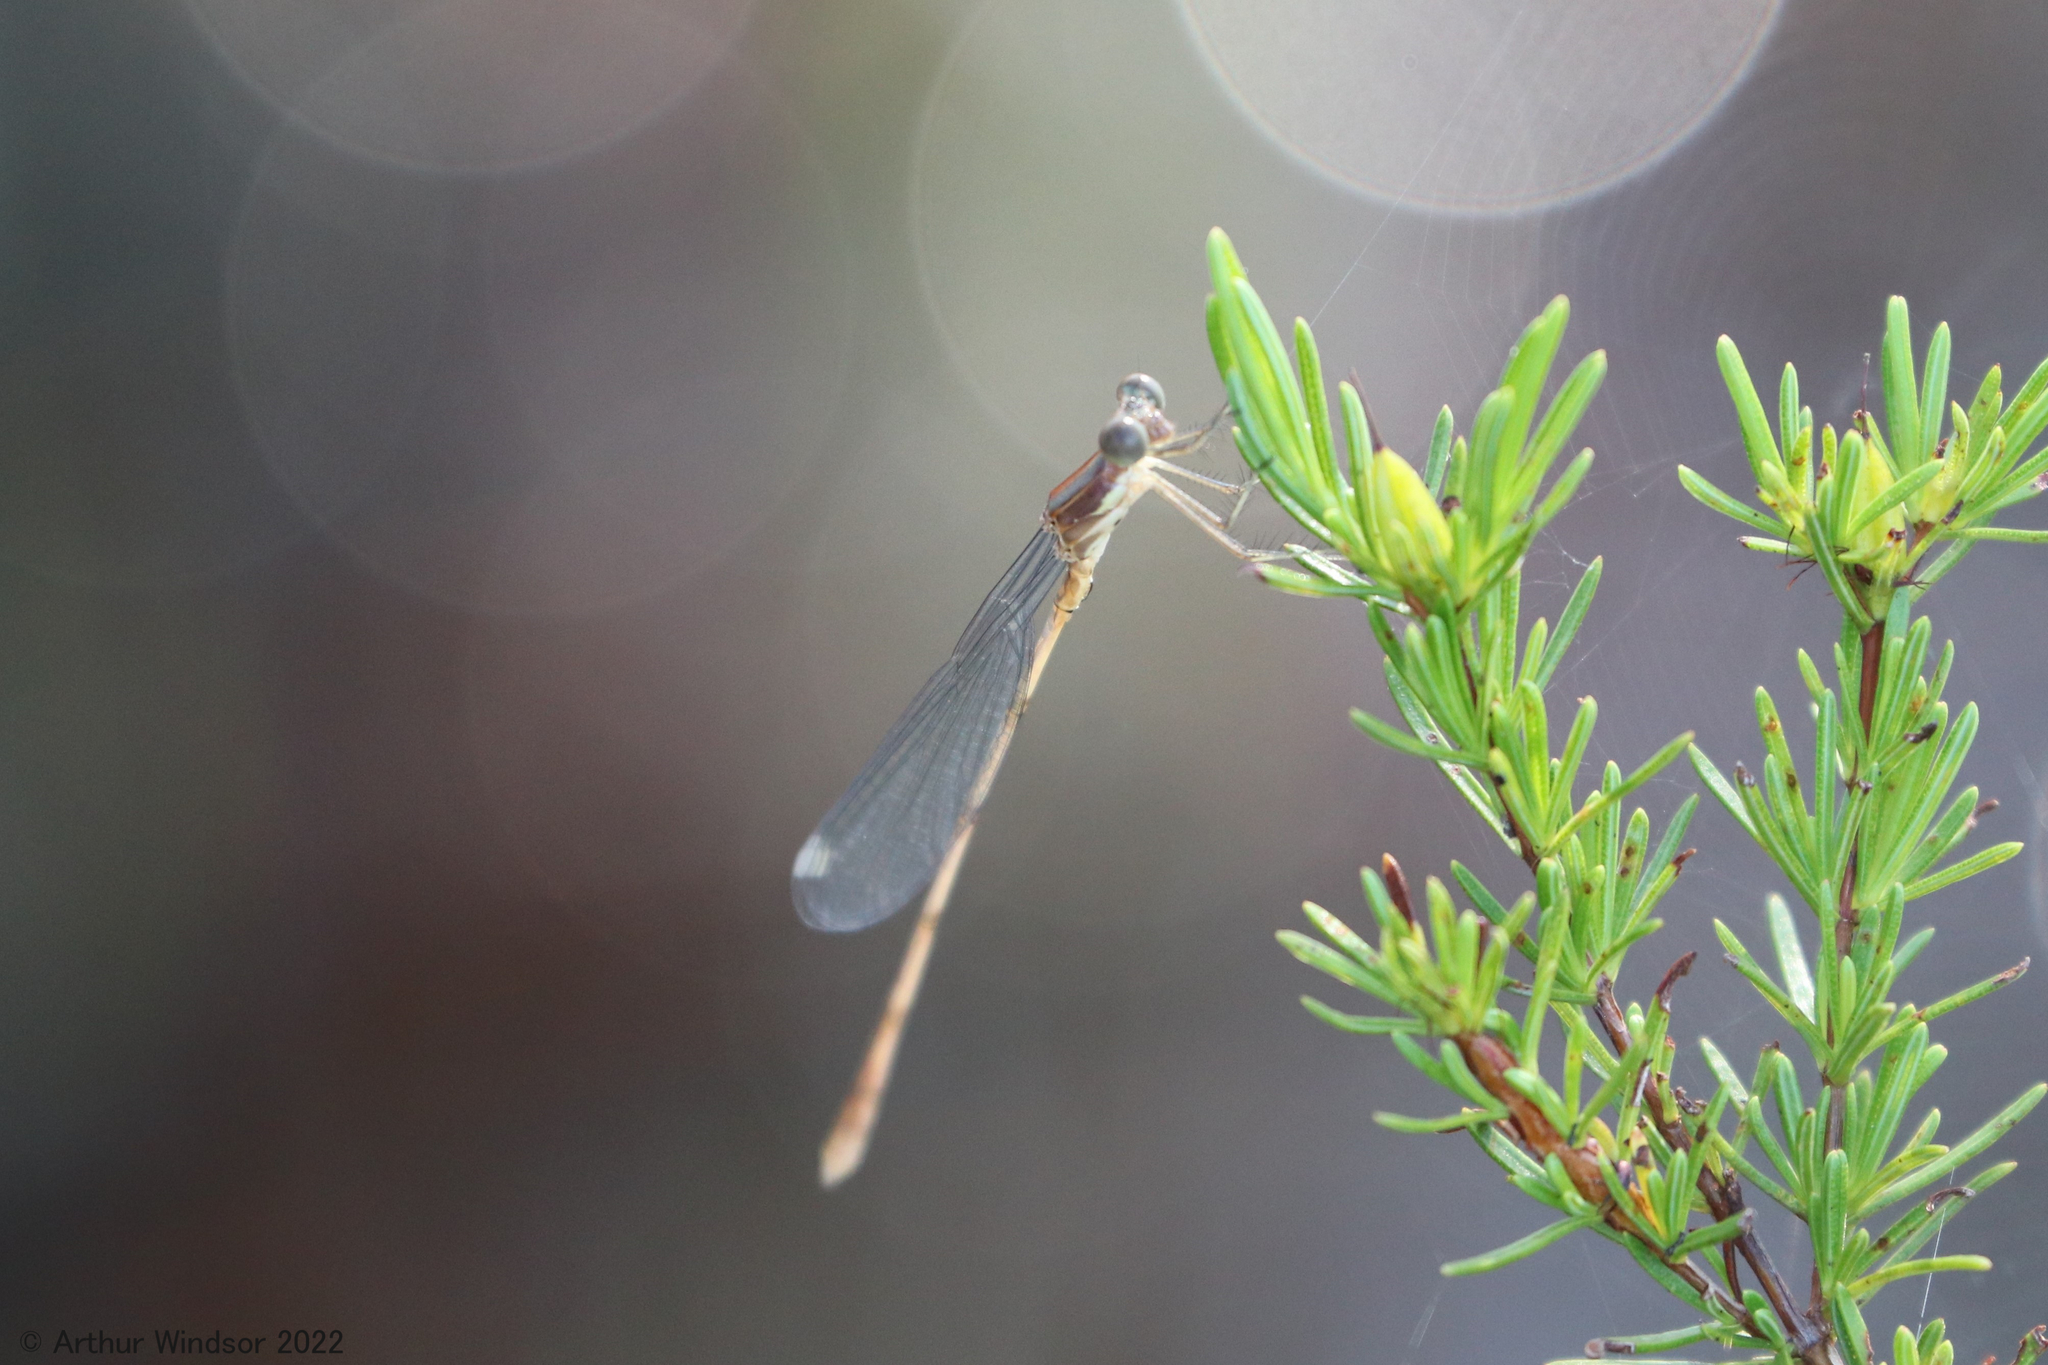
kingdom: Animalia
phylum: Arthropoda
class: Insecta
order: Odonata
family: Lestidae
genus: Lestes
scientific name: Lestes tenuatus
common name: Blue-striped spreadwing
